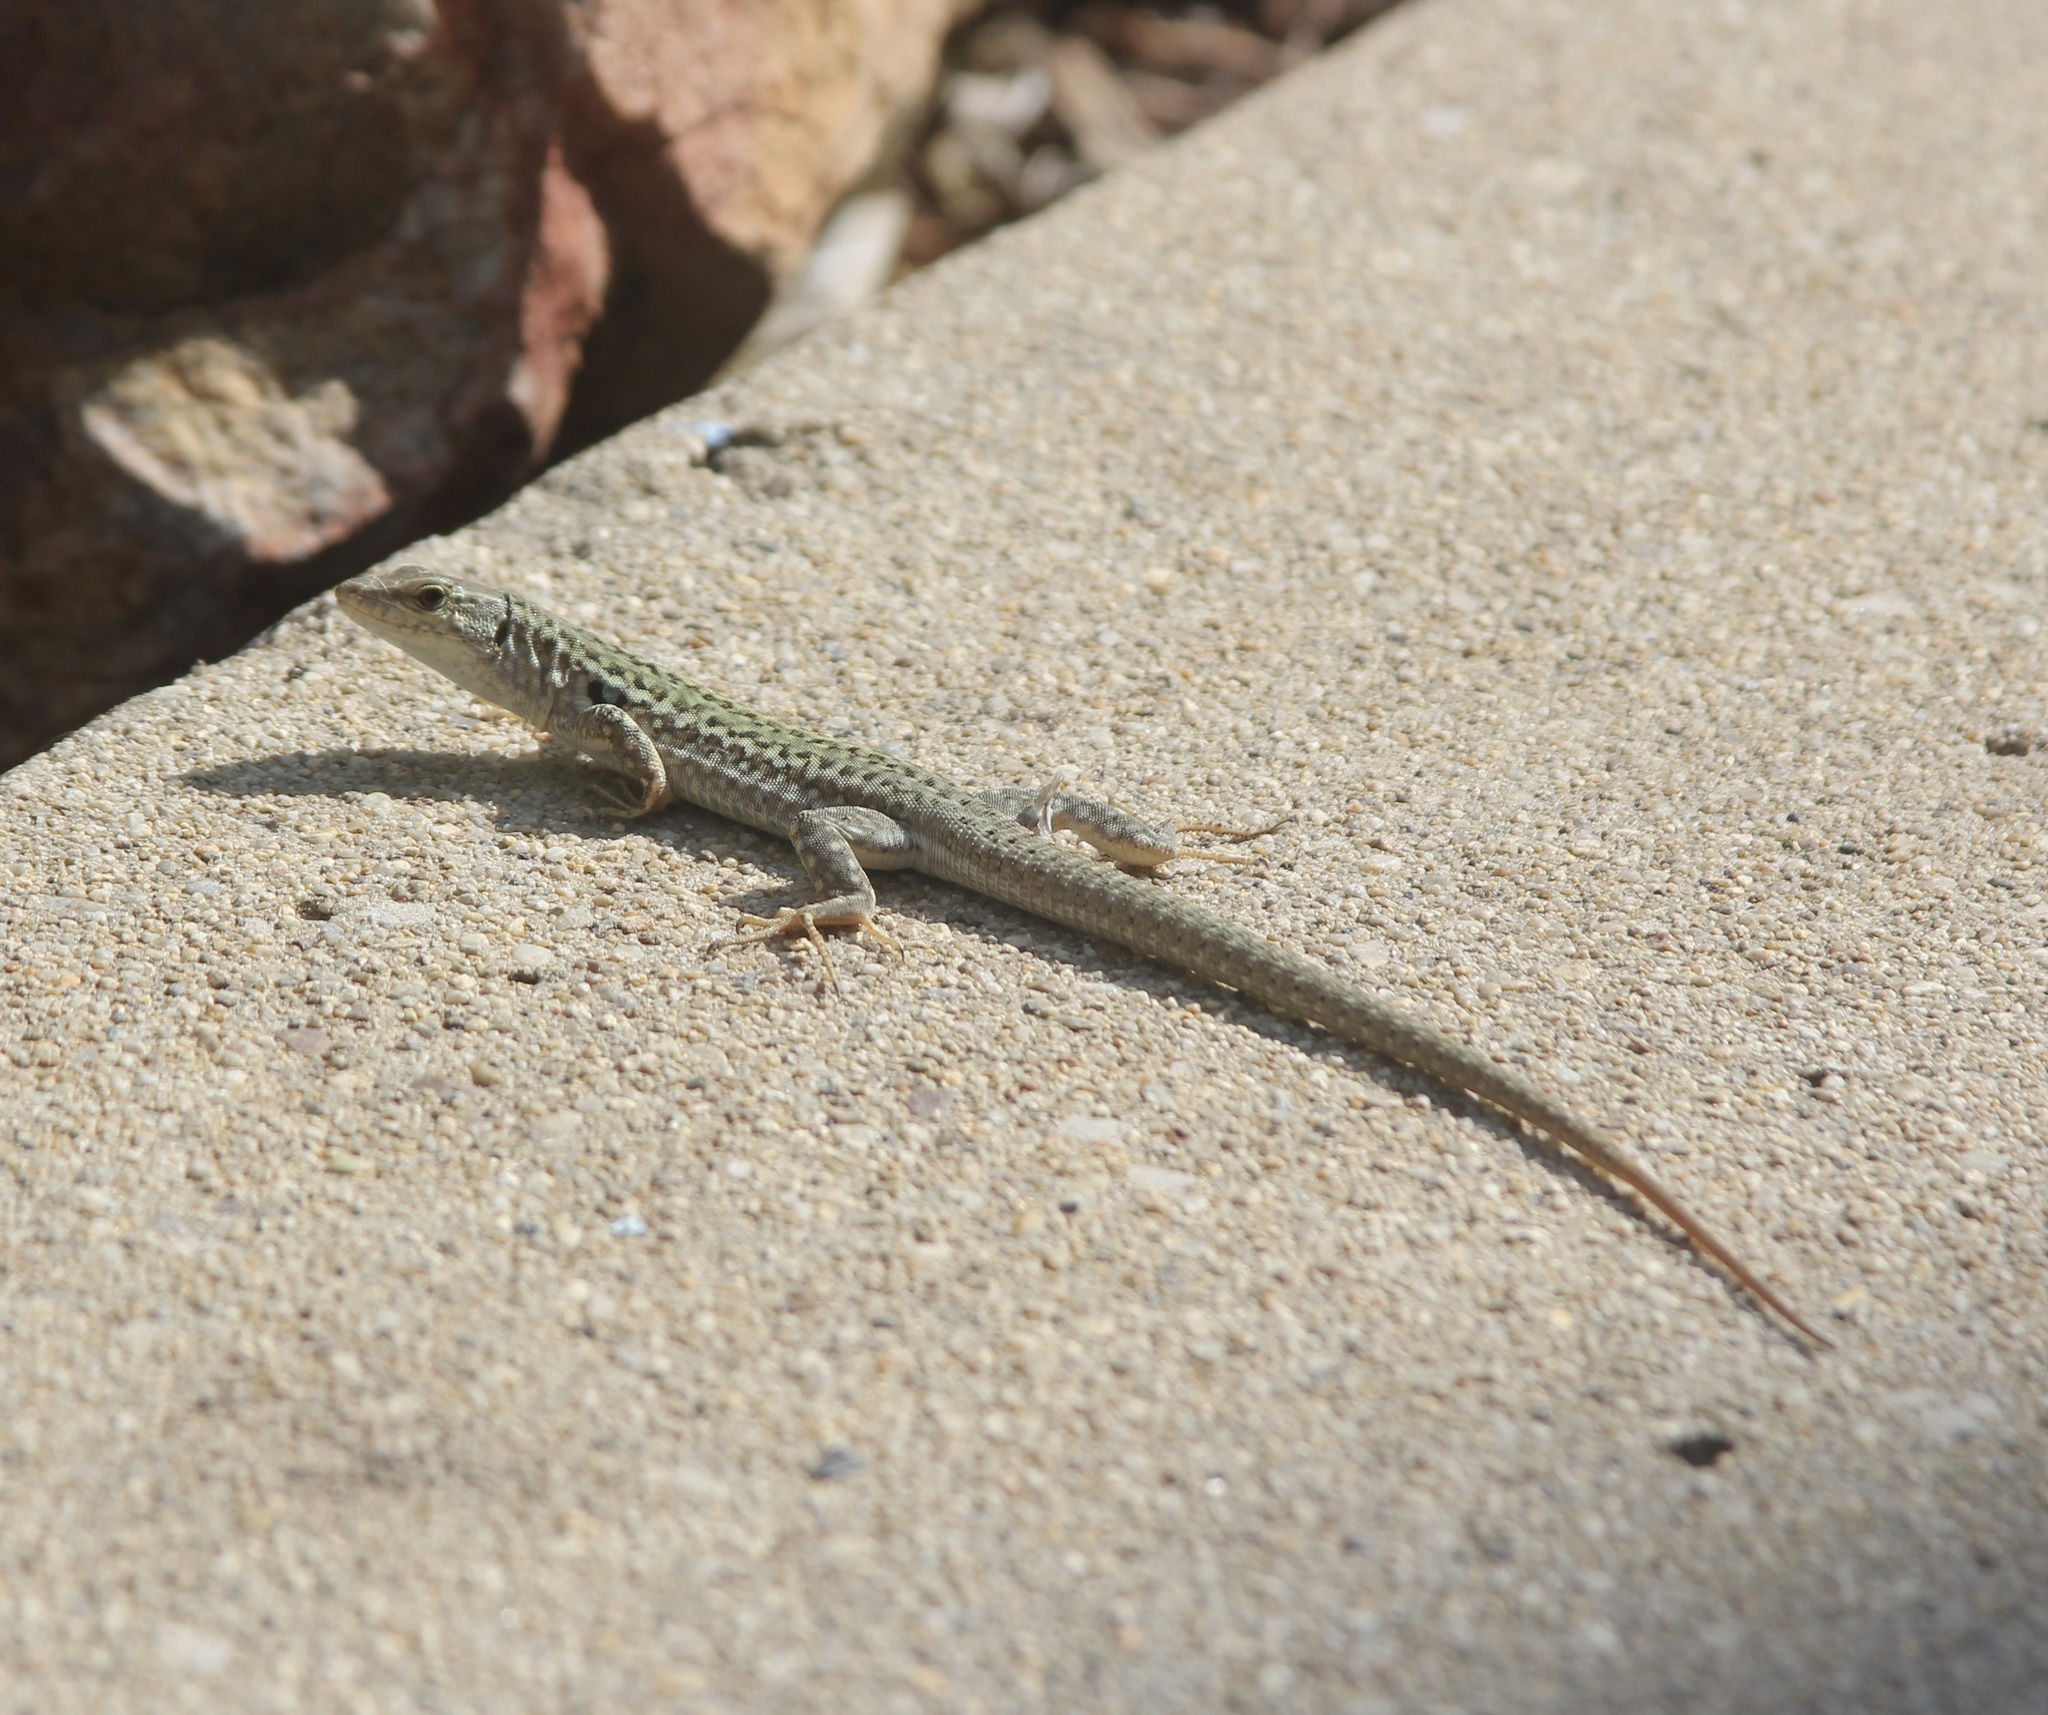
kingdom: Animalia
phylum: Chordata
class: Squamata
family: Lacertidae
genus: Podarcis
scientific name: Podarcis siculus
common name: Italian wall lizard
